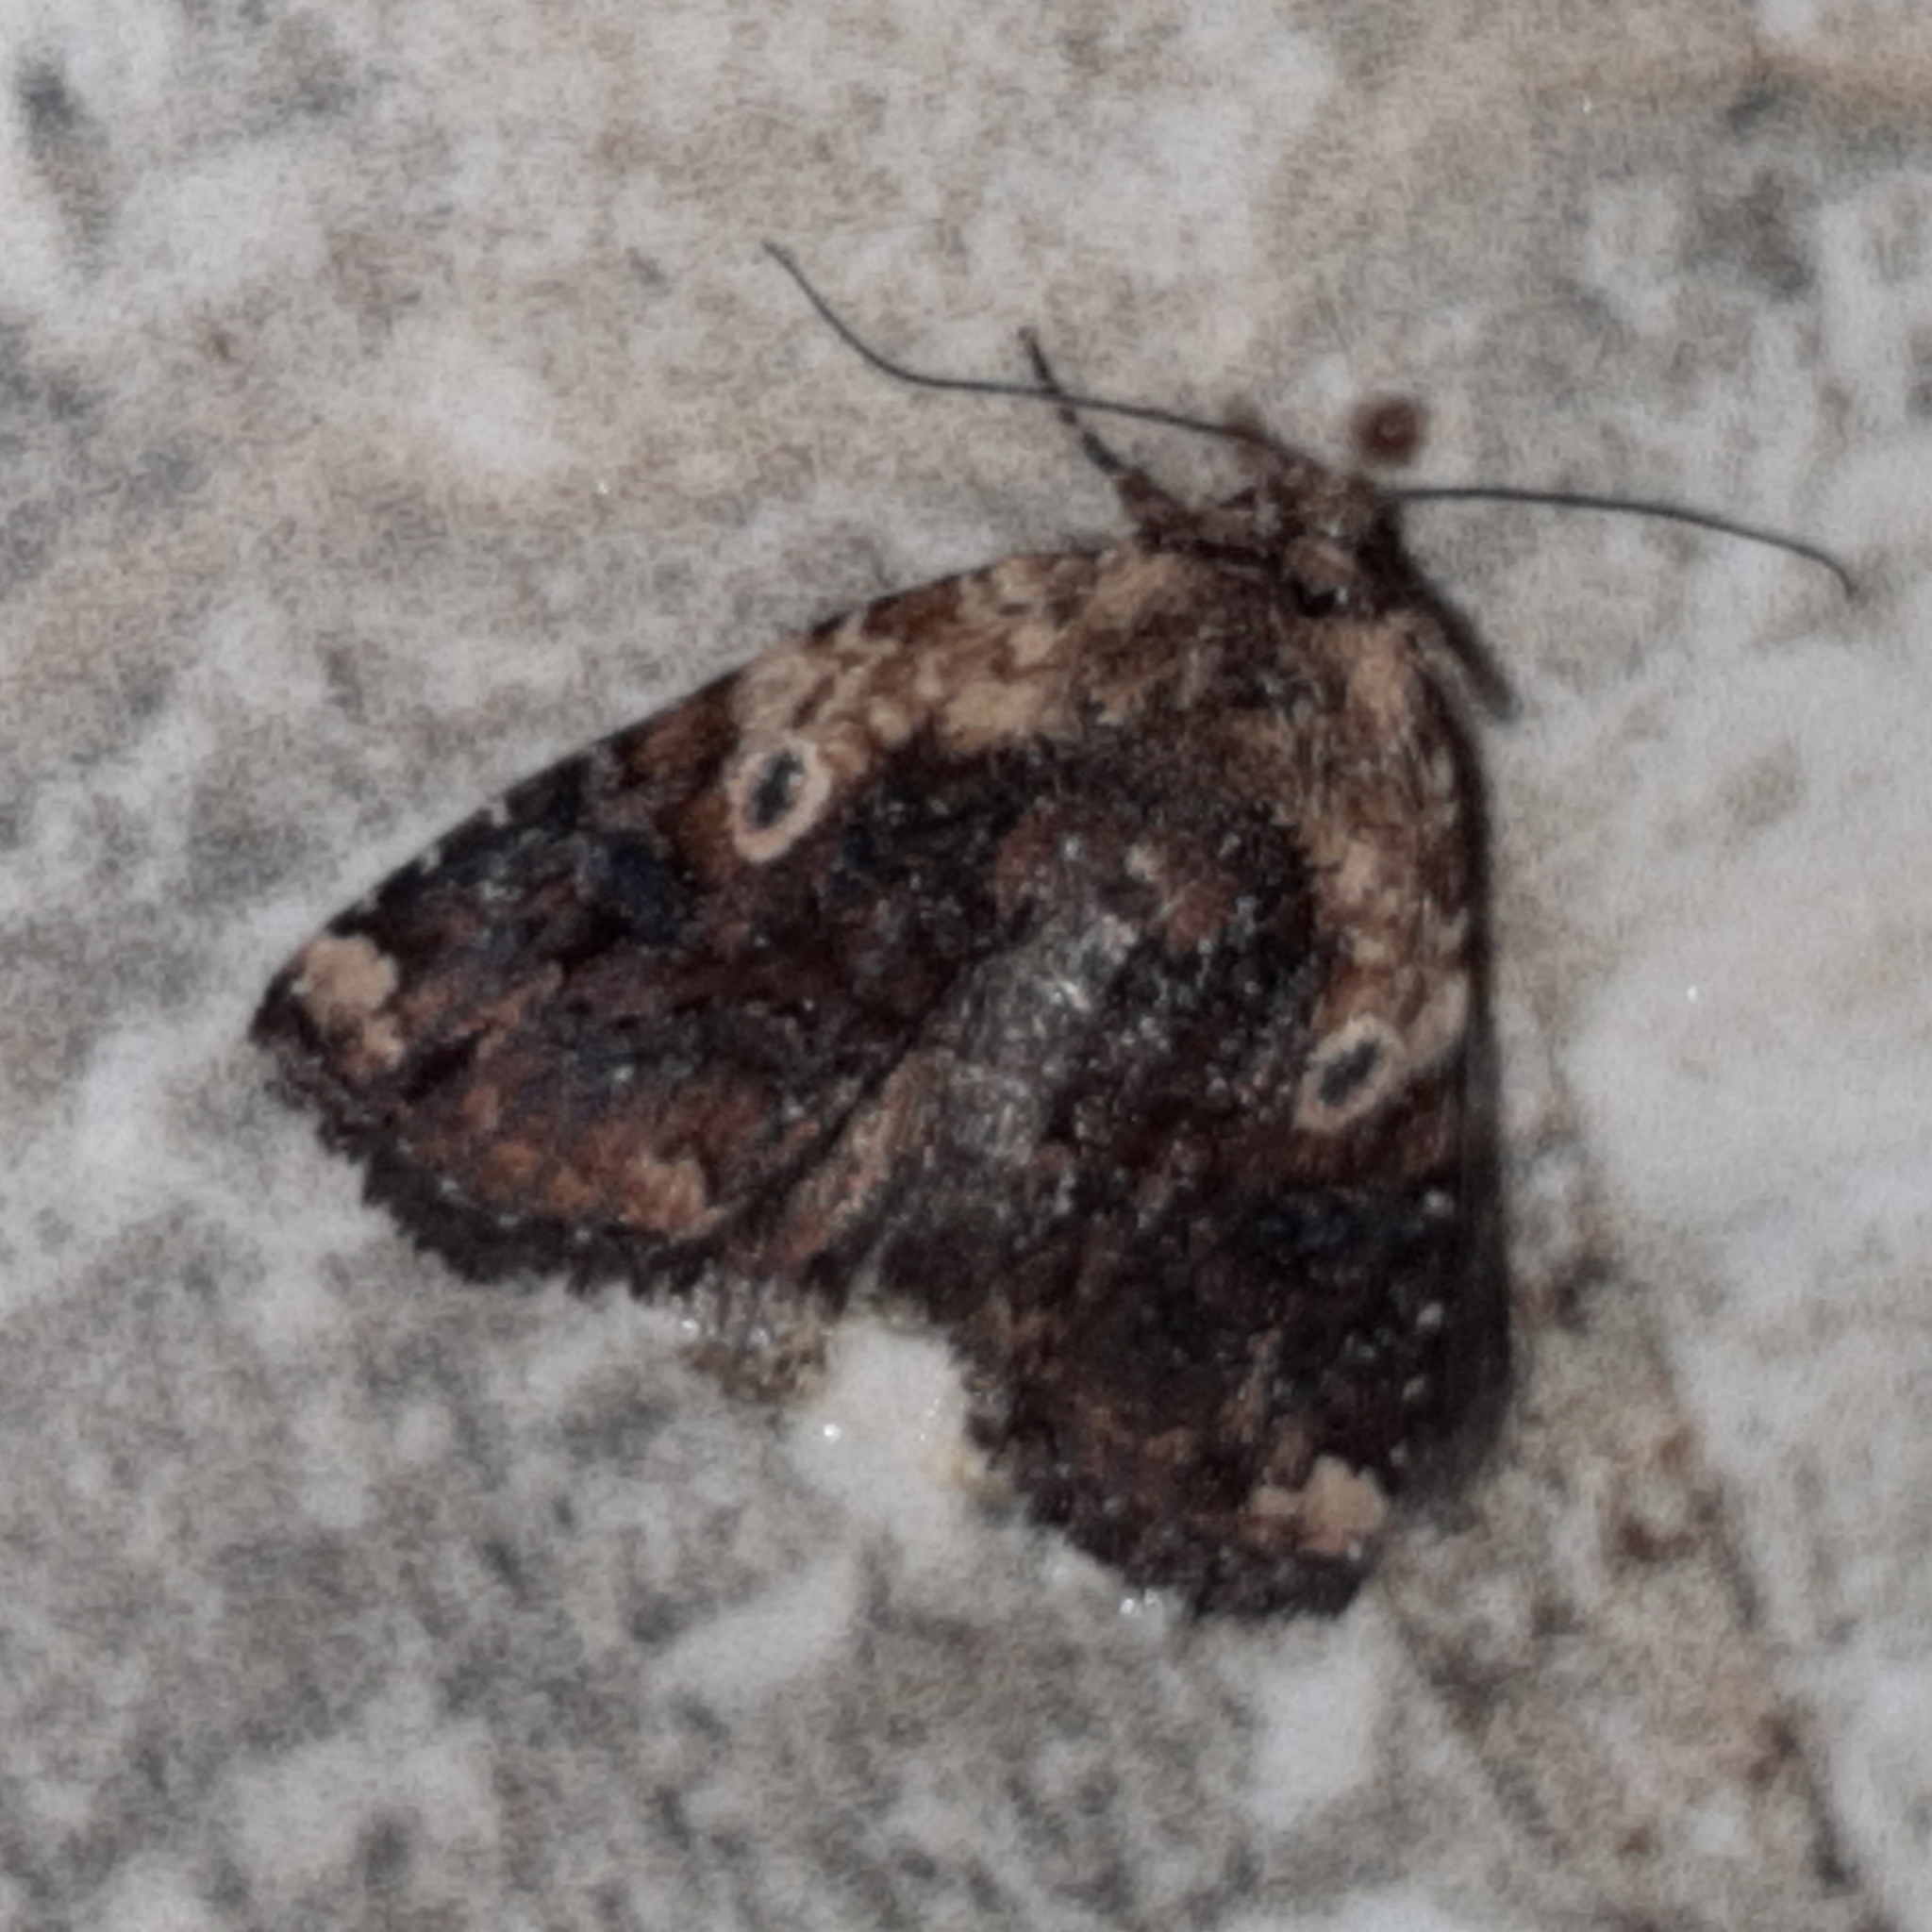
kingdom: Animalia
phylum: Arthropoda
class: Insecta
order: Lepidoptera
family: Noctuidae
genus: Elaphria
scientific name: Elaphria pallescens
